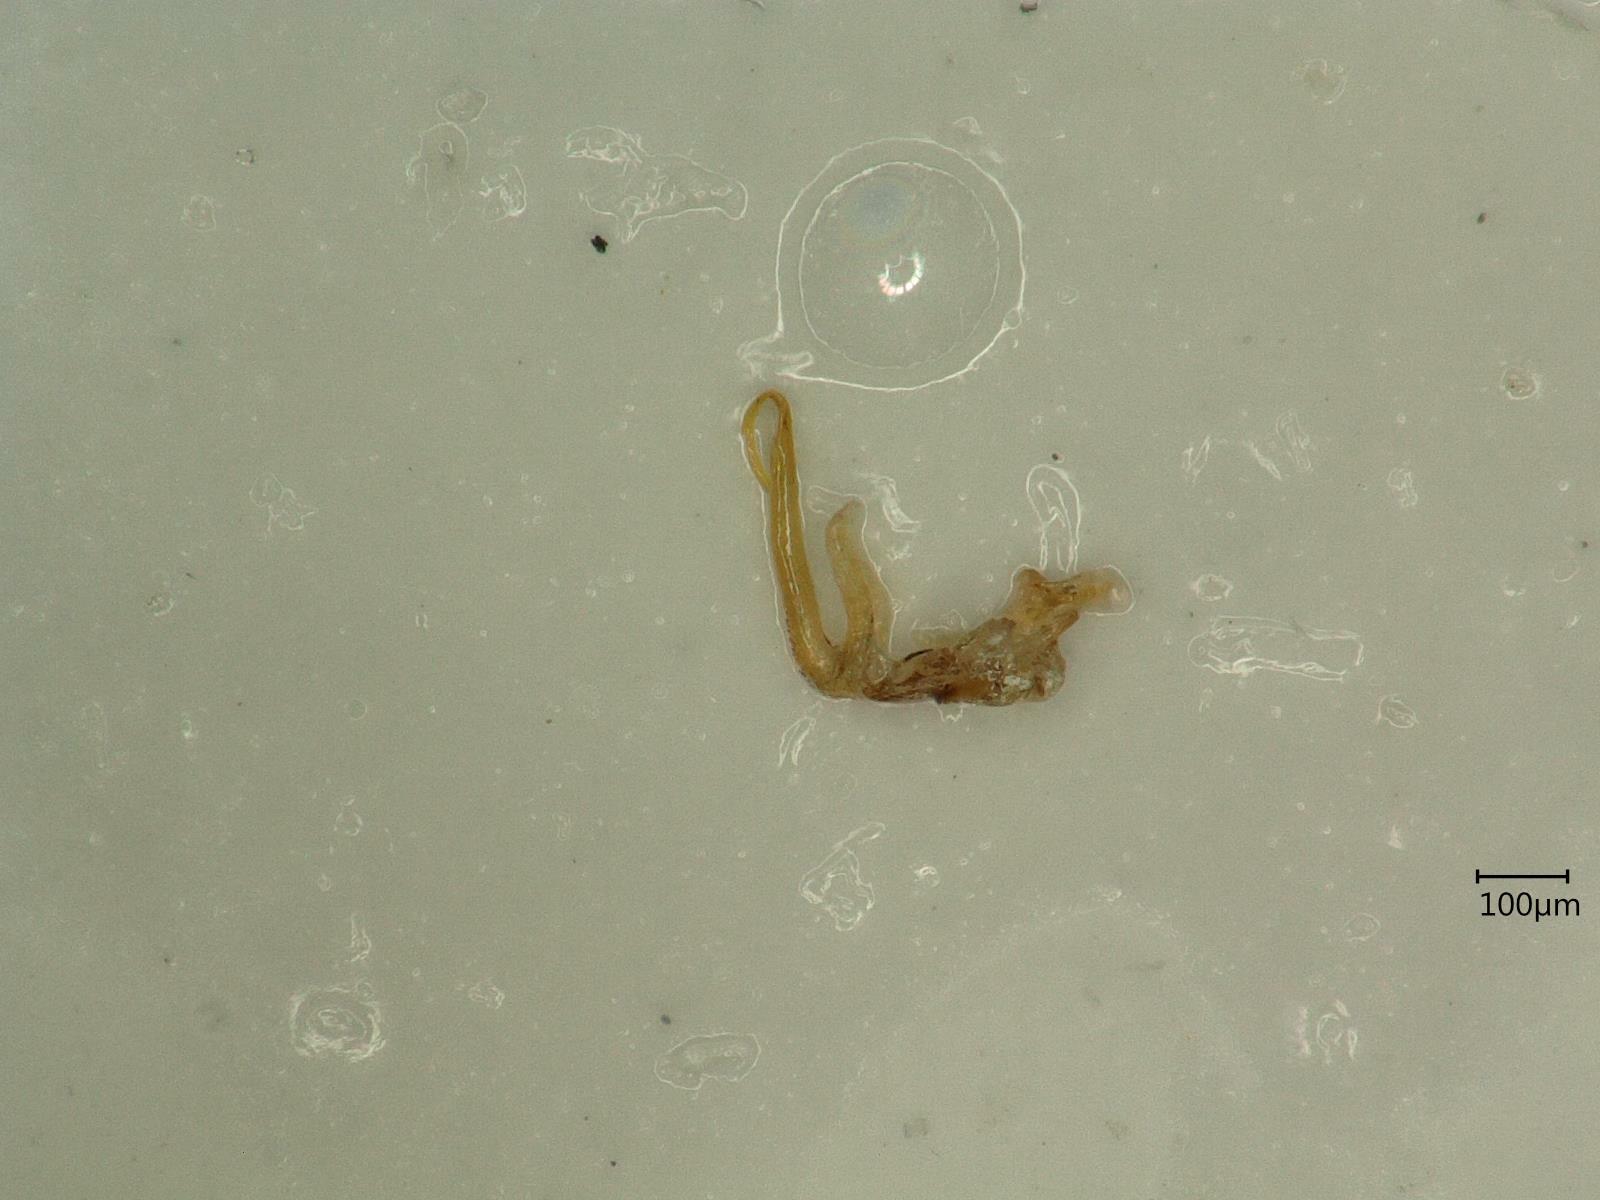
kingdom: Animalia
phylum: Arthropoda
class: Insecta
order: Hemiptera
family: Cicadellidae
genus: Macrosteles
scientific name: Macrosteles variatus
